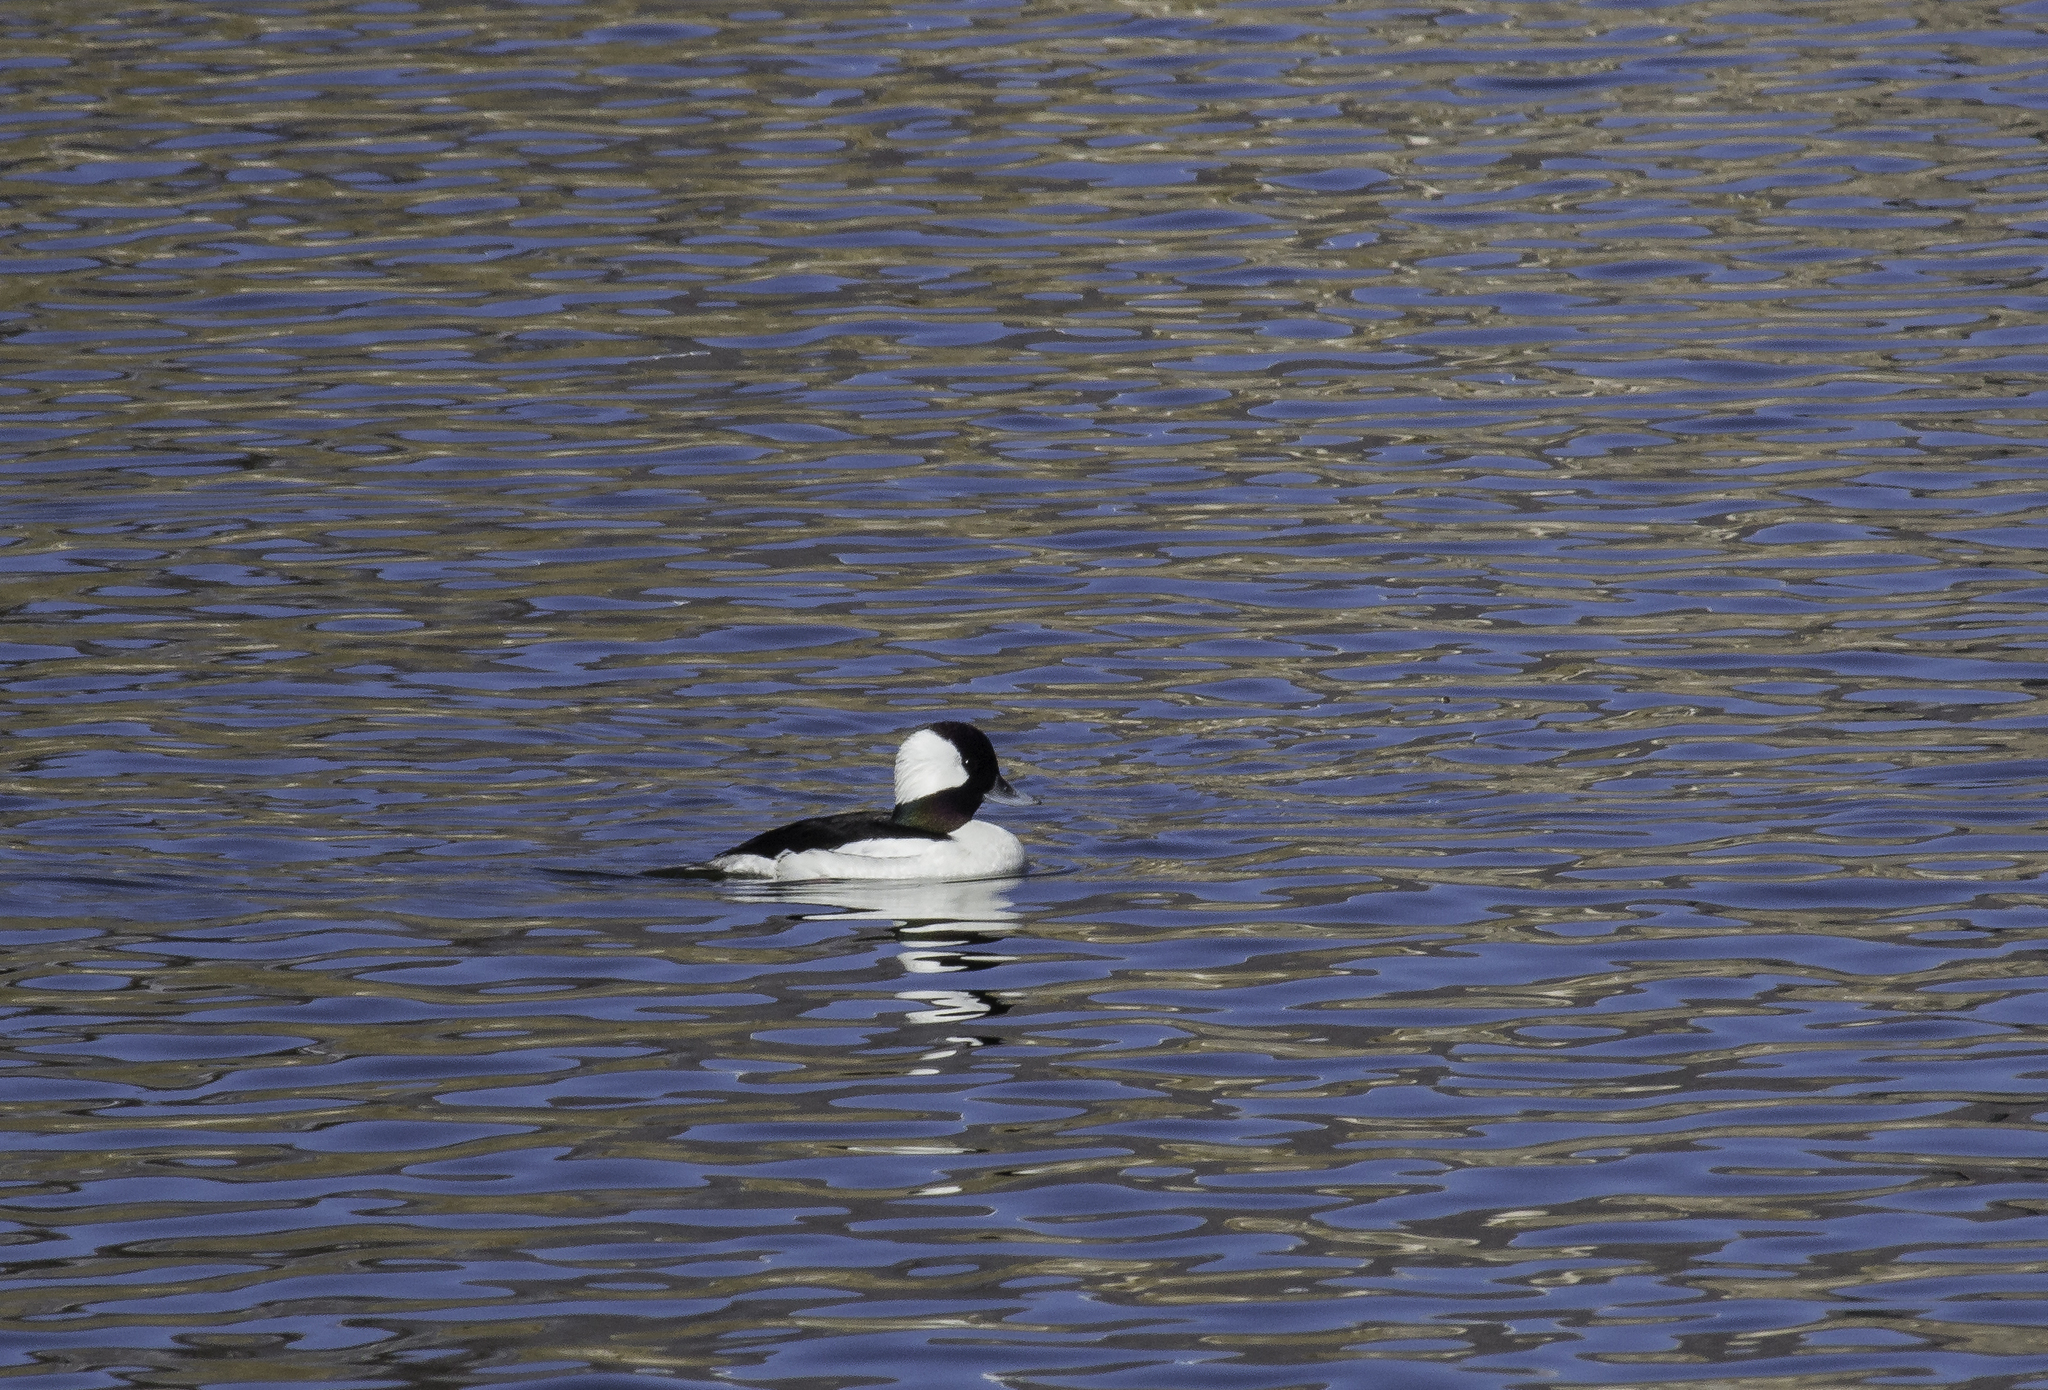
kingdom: Animalia
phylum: Chordata
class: Aves
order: Anseriformes
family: Anatidae
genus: Bucephala
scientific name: Bucephala albeola
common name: Bufflehead
